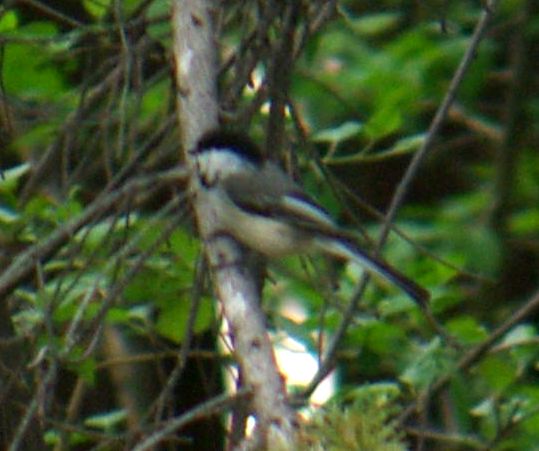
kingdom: Animalia
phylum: Chordata
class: Aves
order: Passeriformes
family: Paridae
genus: Poecile
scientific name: Poecile atricapillus
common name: Black-capped chickadee
